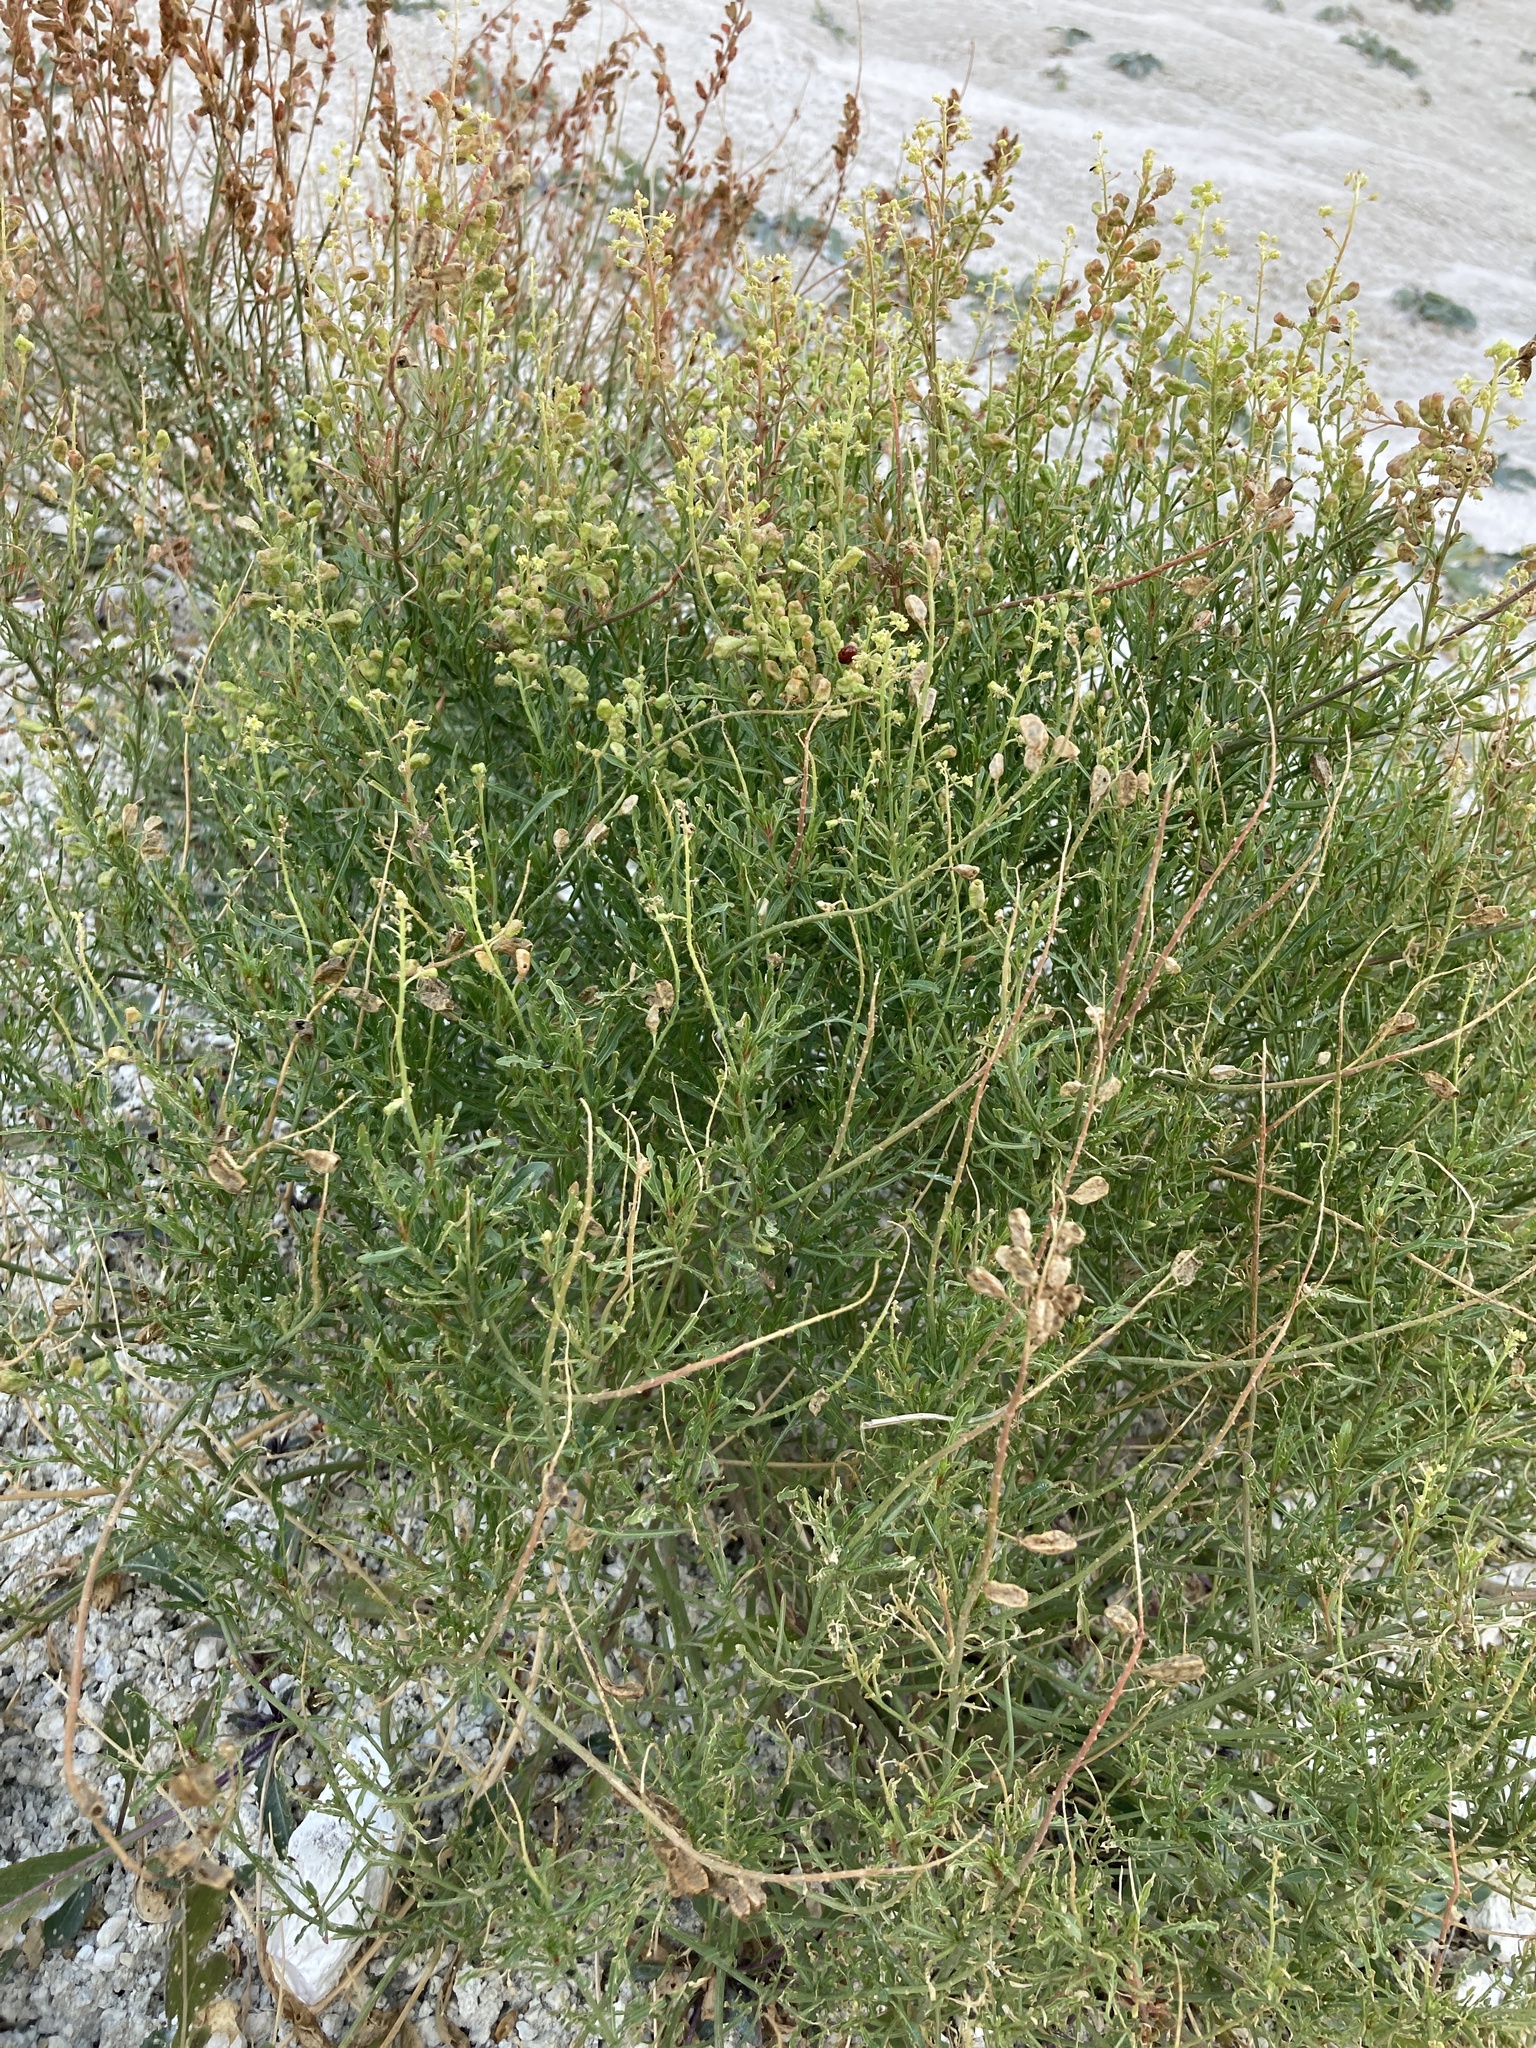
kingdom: Plantae
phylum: Tracheophyta
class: Magnoliopsida
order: Brassicales
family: Resedaceae
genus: Reseda
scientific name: Reseda lutea
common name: Wild mignonette
